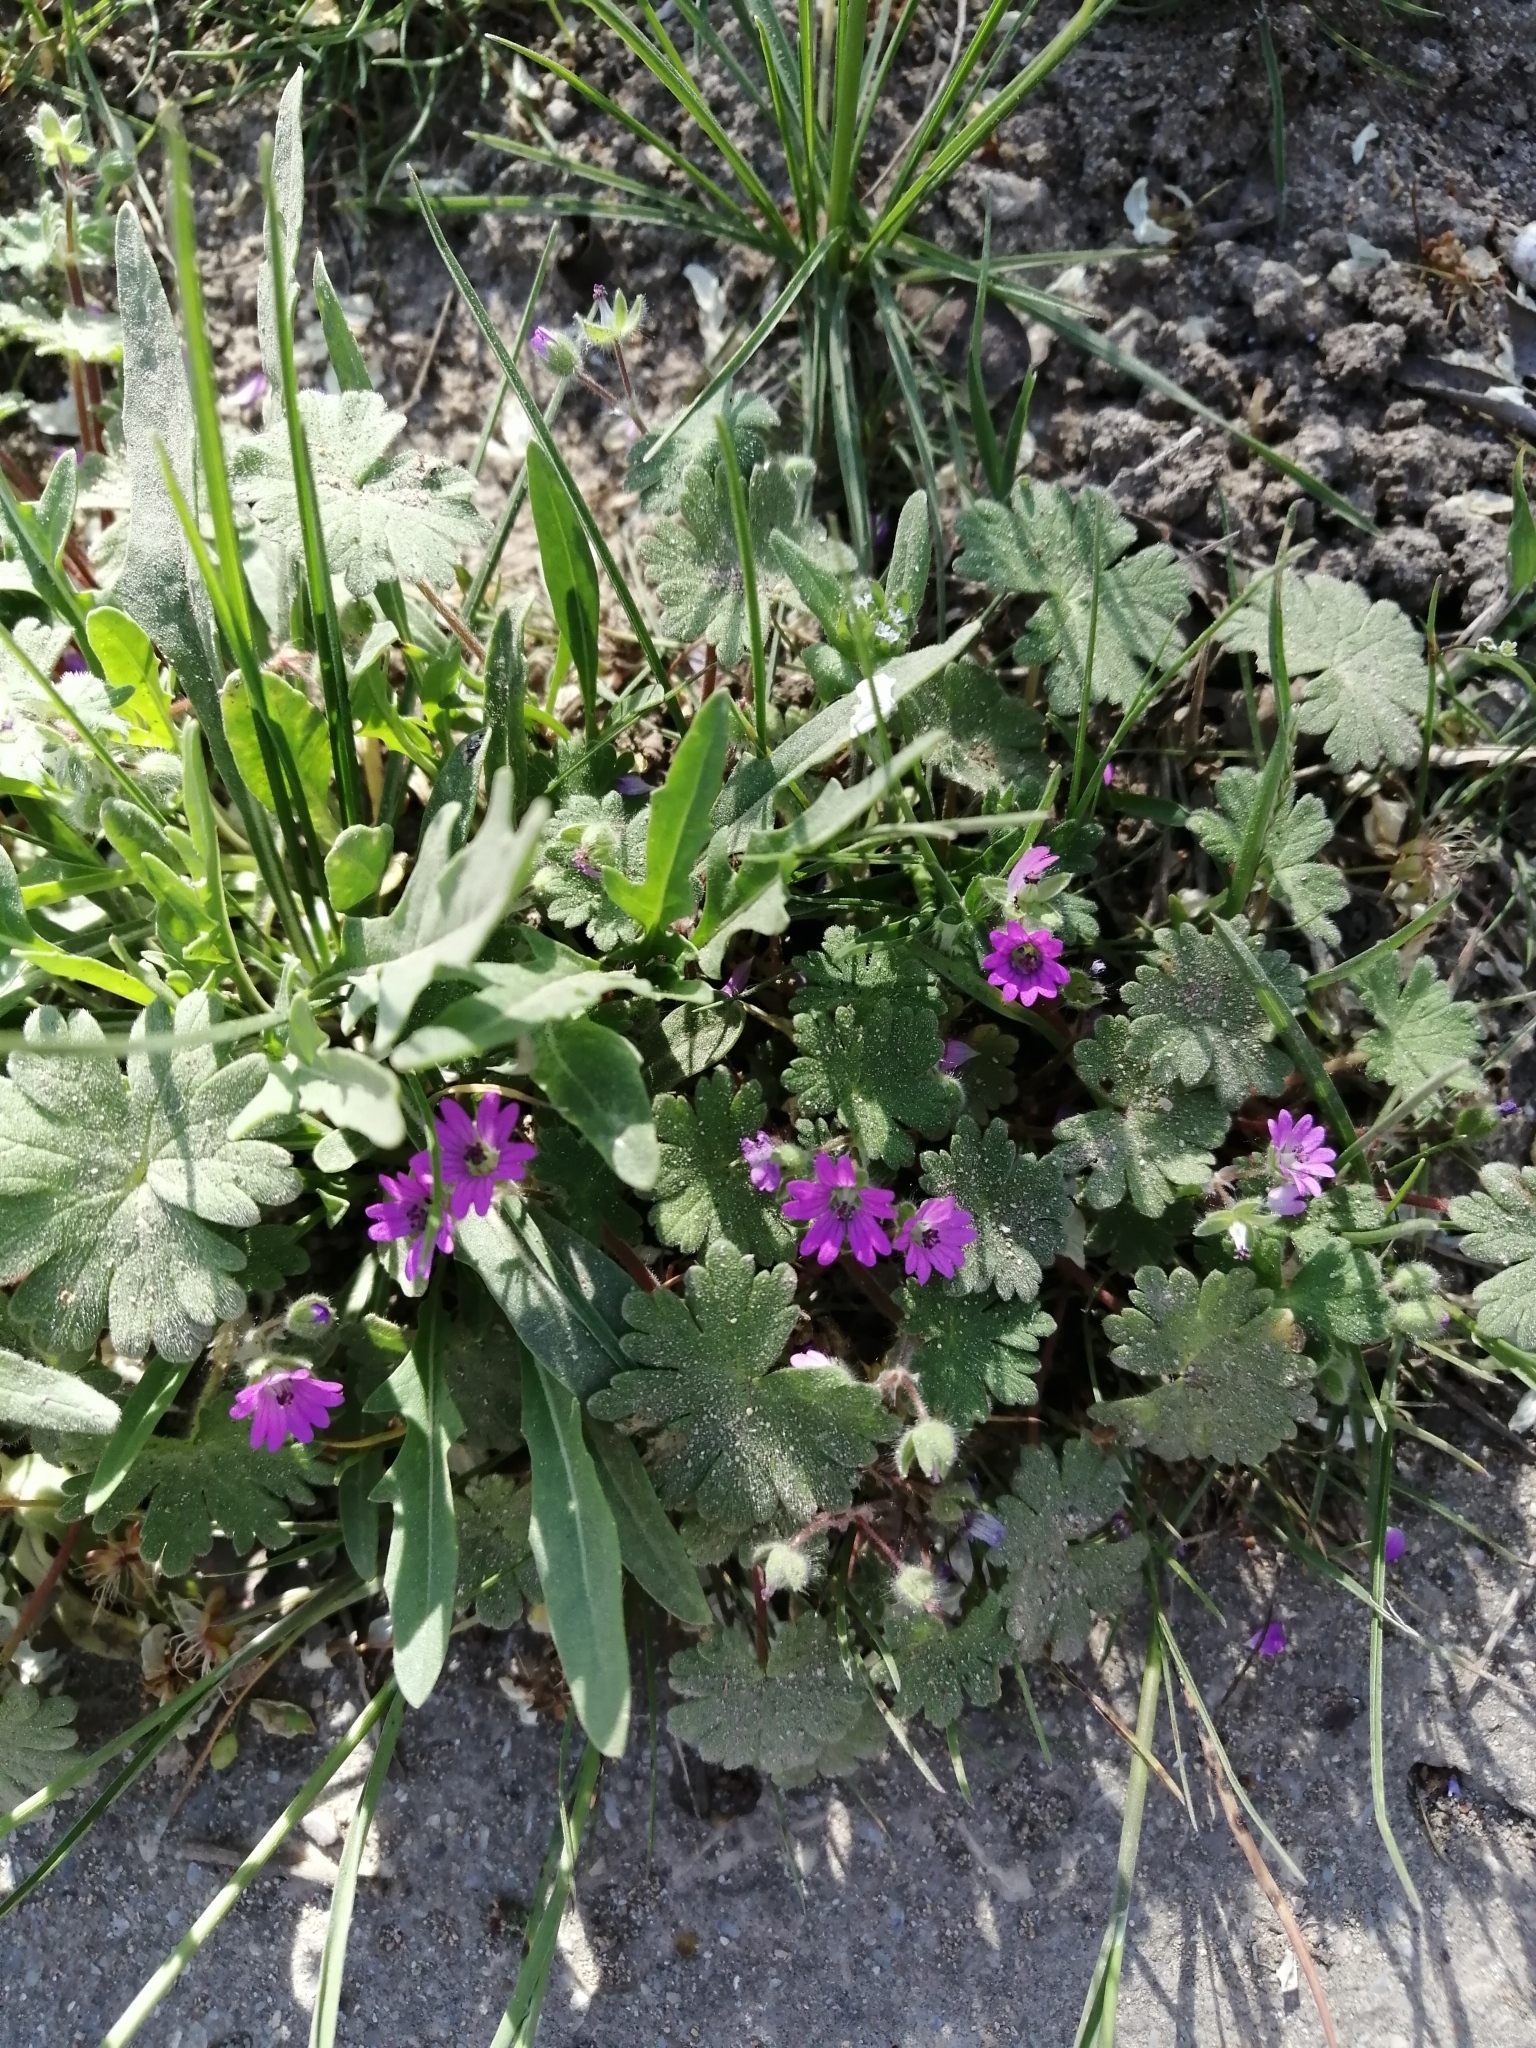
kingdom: Plantae
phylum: Tracheophyta
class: Magnoliopsida
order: Geraniales
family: Geraniaceae
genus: Geranium
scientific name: Geranium molle
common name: Dove's-foot crane's-bill
